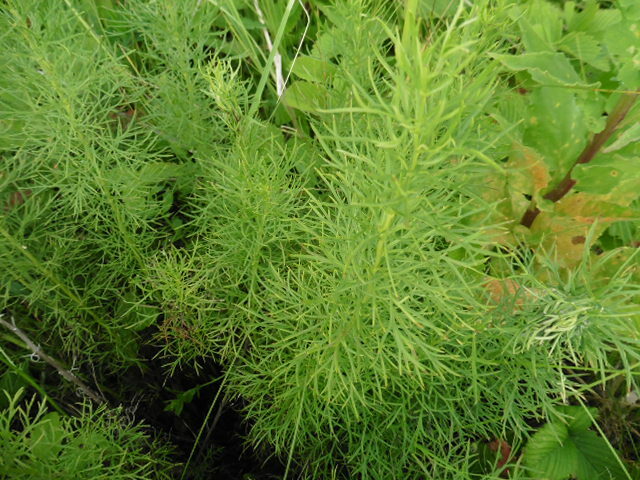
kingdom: Plantae
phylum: Tracheophyta
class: Magnoliopsida
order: Ranunculales
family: Ranunculaceae
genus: Adonis
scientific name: Adonis vernalis
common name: Yellow pheasants-eye
